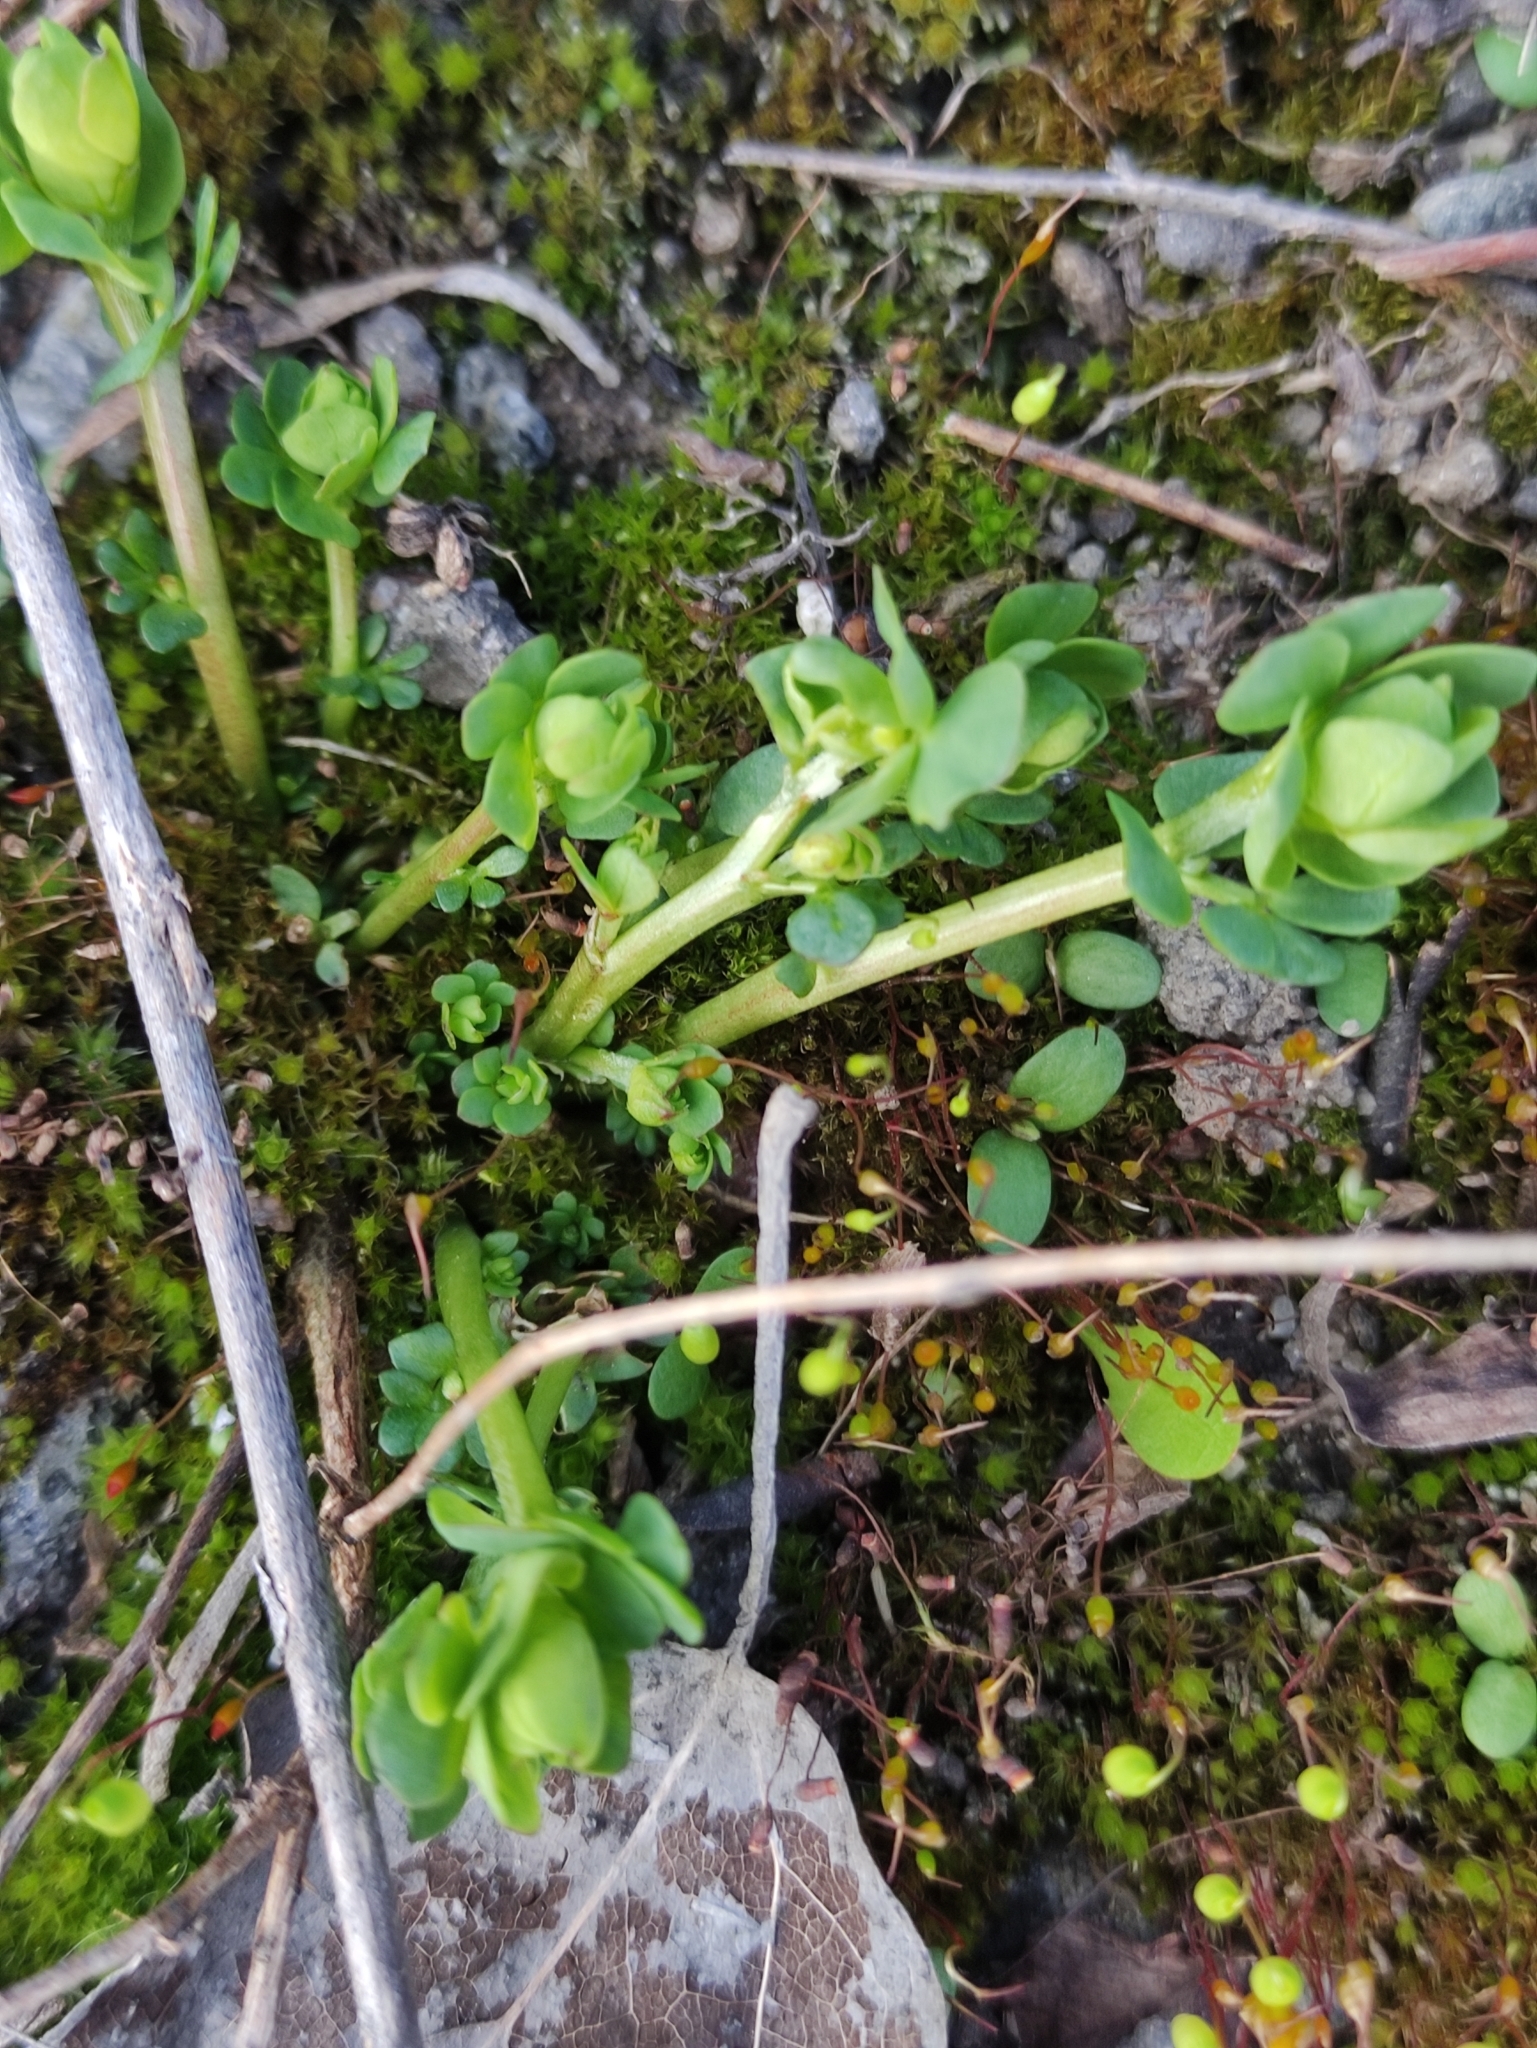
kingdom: Plantae
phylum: Tracheophyta
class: Magnoliopsida
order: Fabales
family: Fabaceae
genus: Lotus
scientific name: Lotus corniculatus
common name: Common bird's-foot-trefoil
